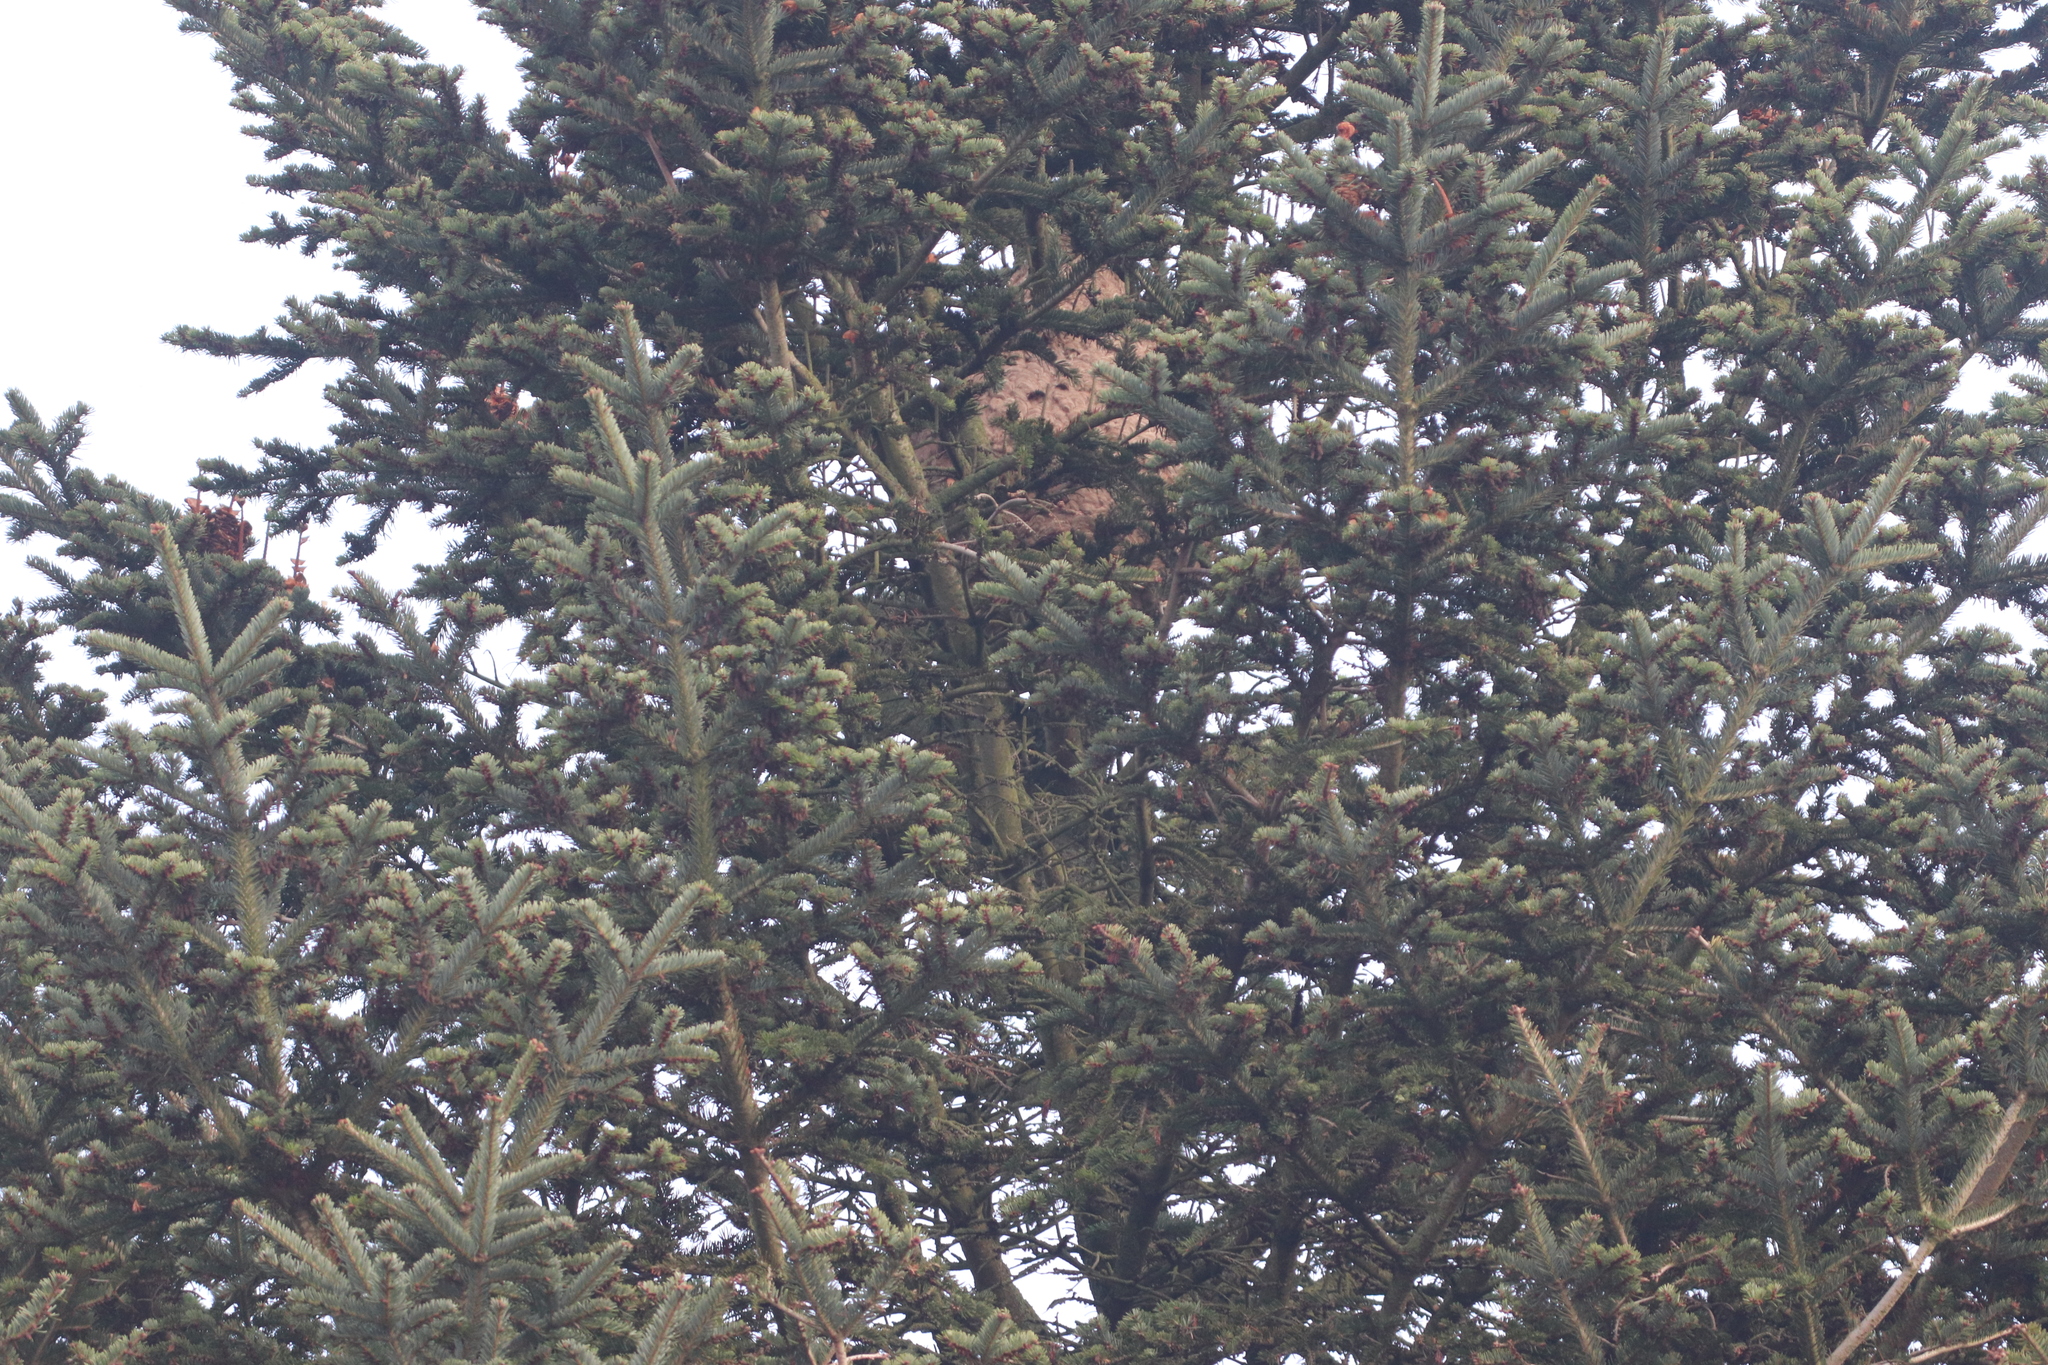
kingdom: Animalia
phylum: Arthropoda
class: Insecta
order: Hymenoptera
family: Vespidae
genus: Vespa
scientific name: Vespa velutina
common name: Asian hornet
